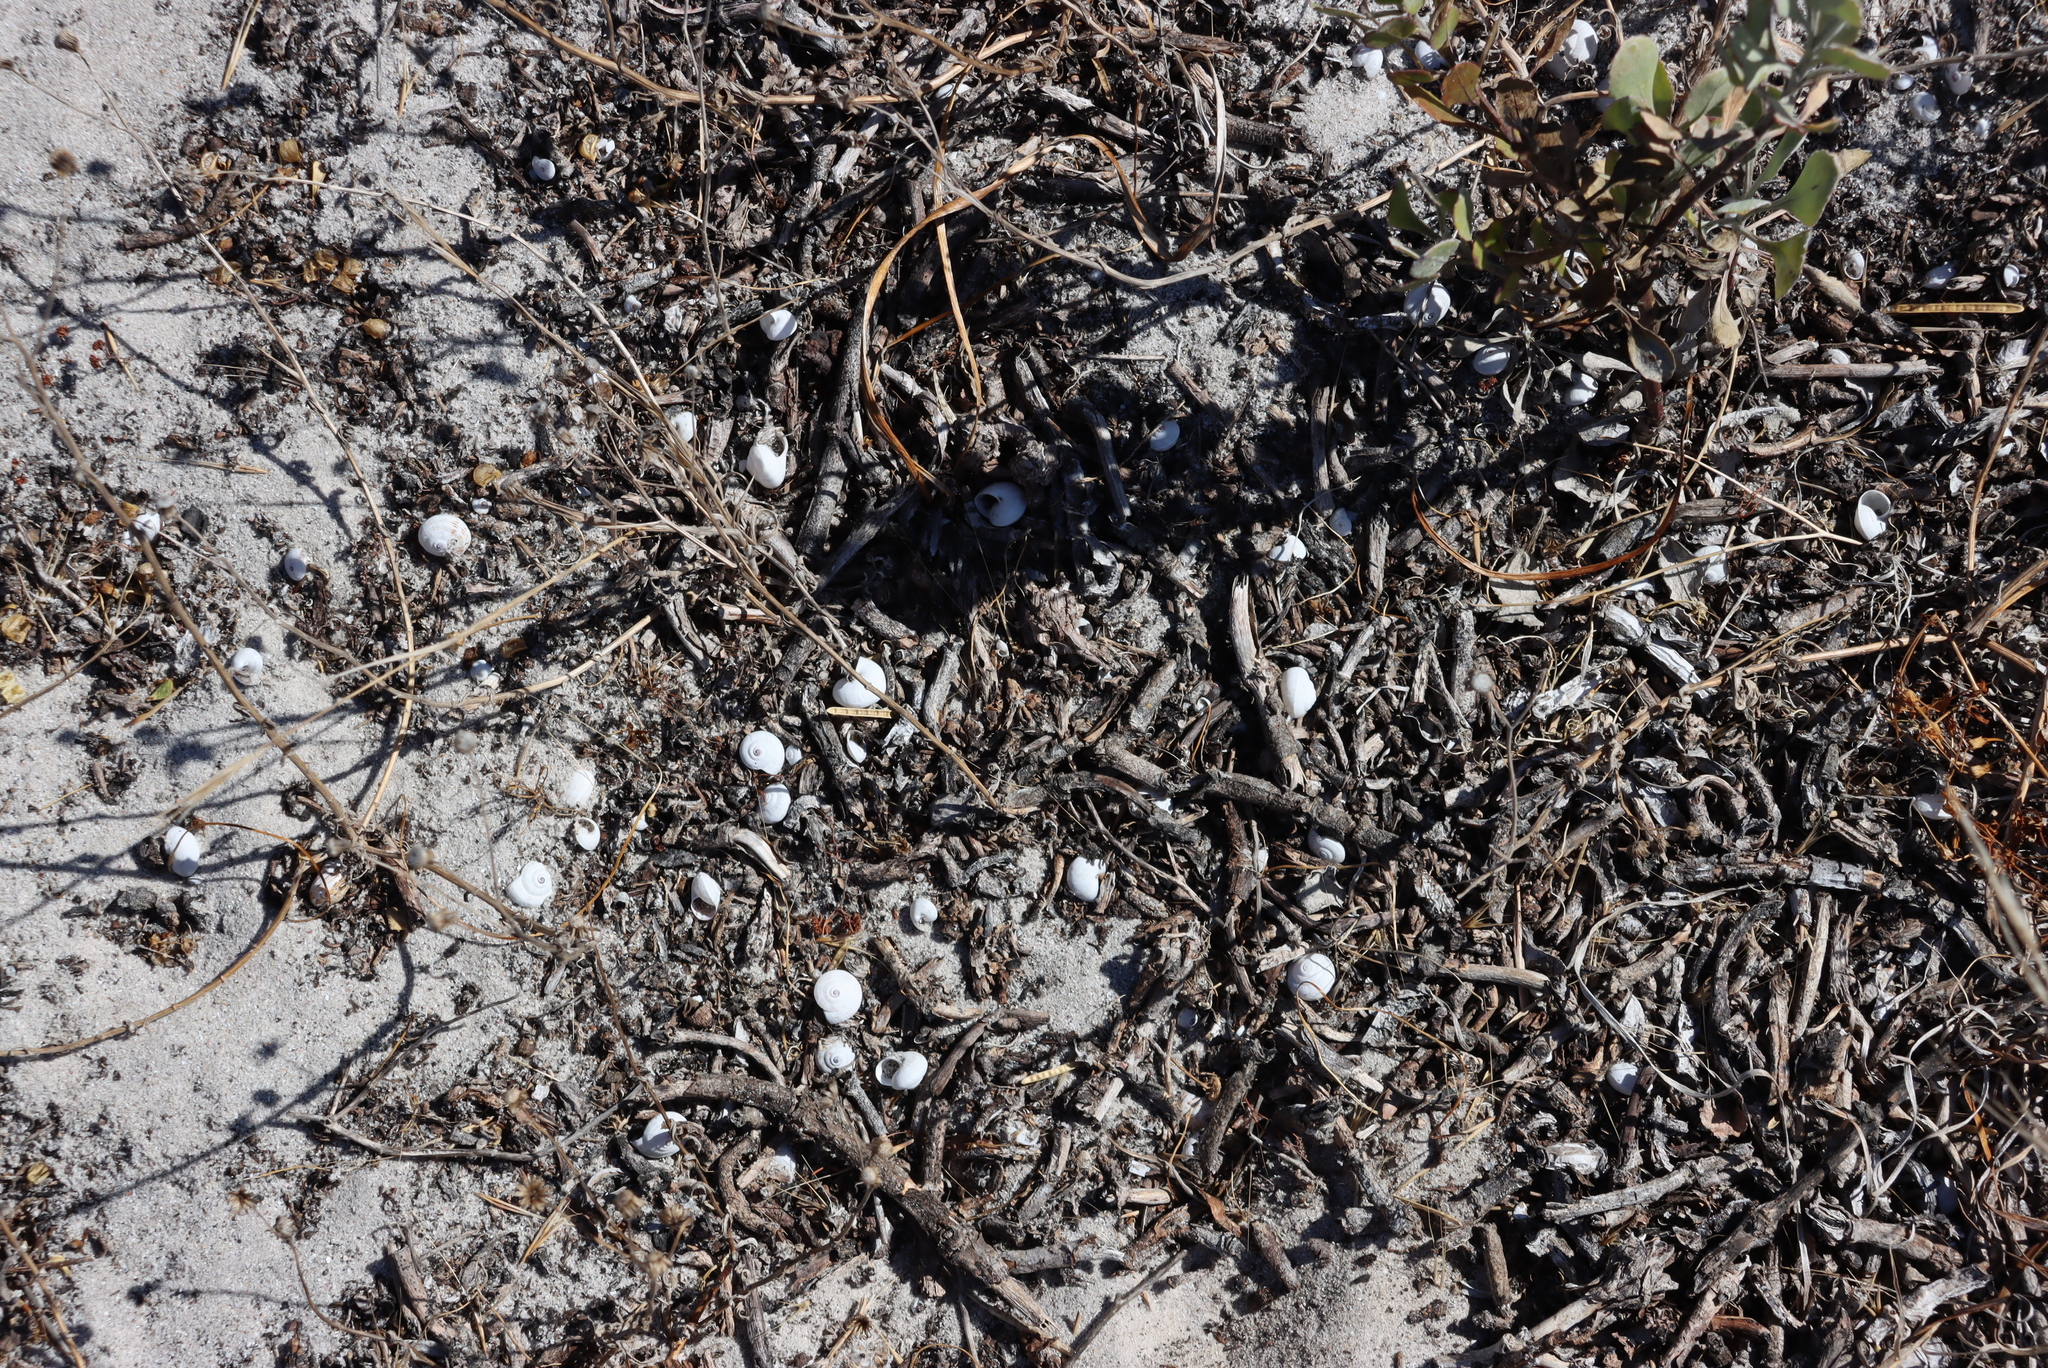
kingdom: Animalia
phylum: Mollusca
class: Gastropoda
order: Stylommatophora
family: Helicidae
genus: Theba
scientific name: Theba pisana
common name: White snail
